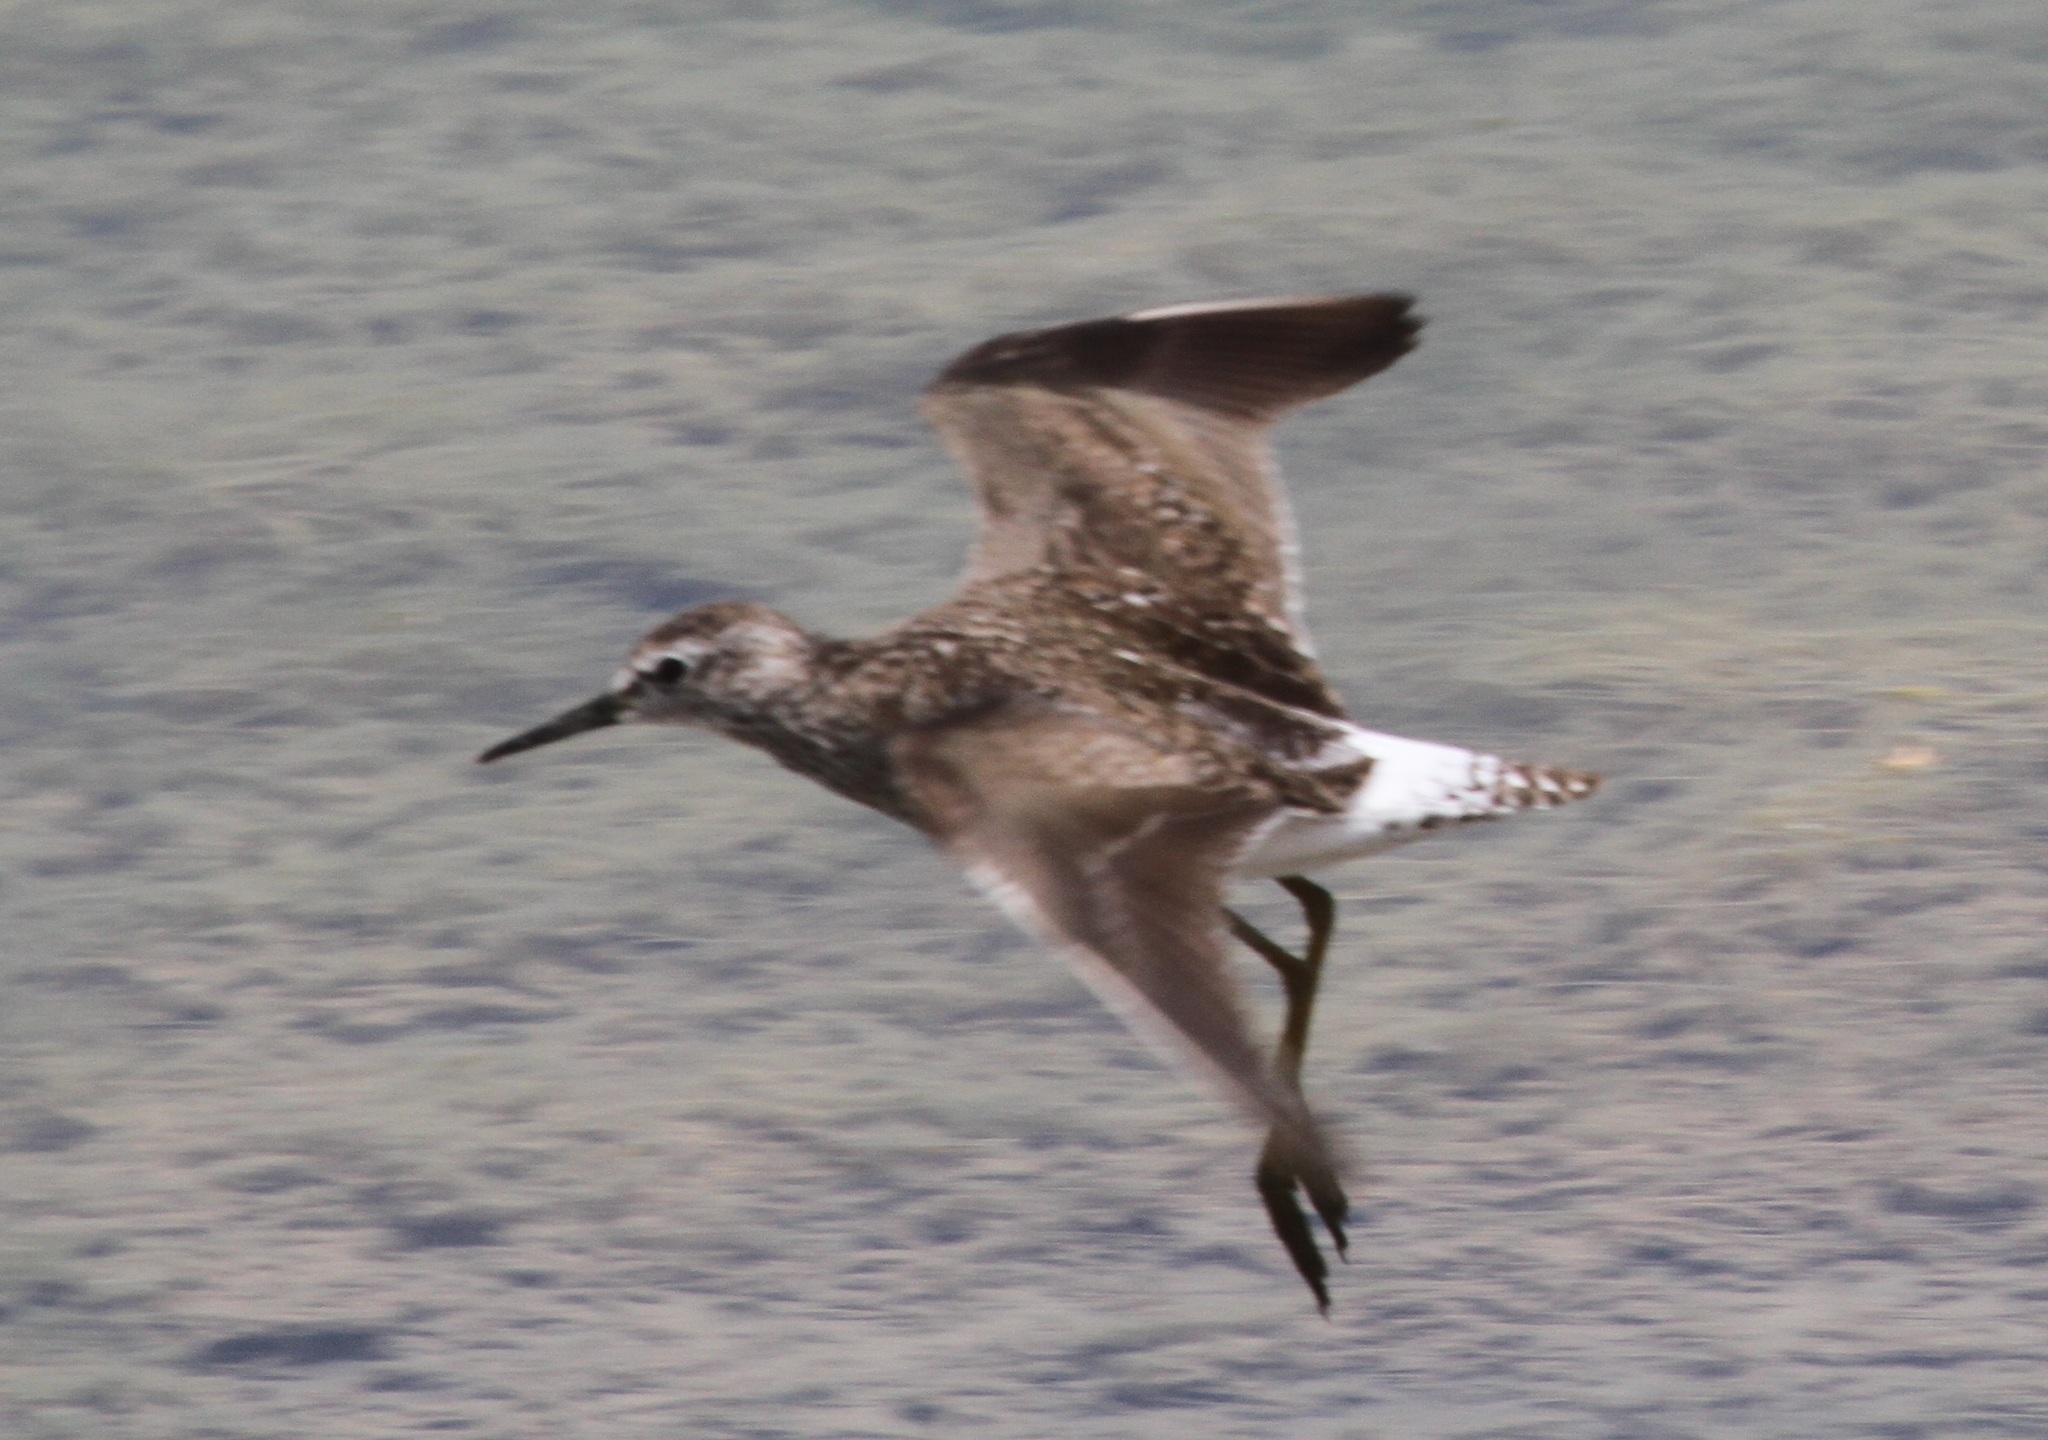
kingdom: Animalia
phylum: Chordata
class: Aves
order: Charadriiformes
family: Scolopacidae
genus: Tringa
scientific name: Tringa glareola
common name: Wood sandpiper
